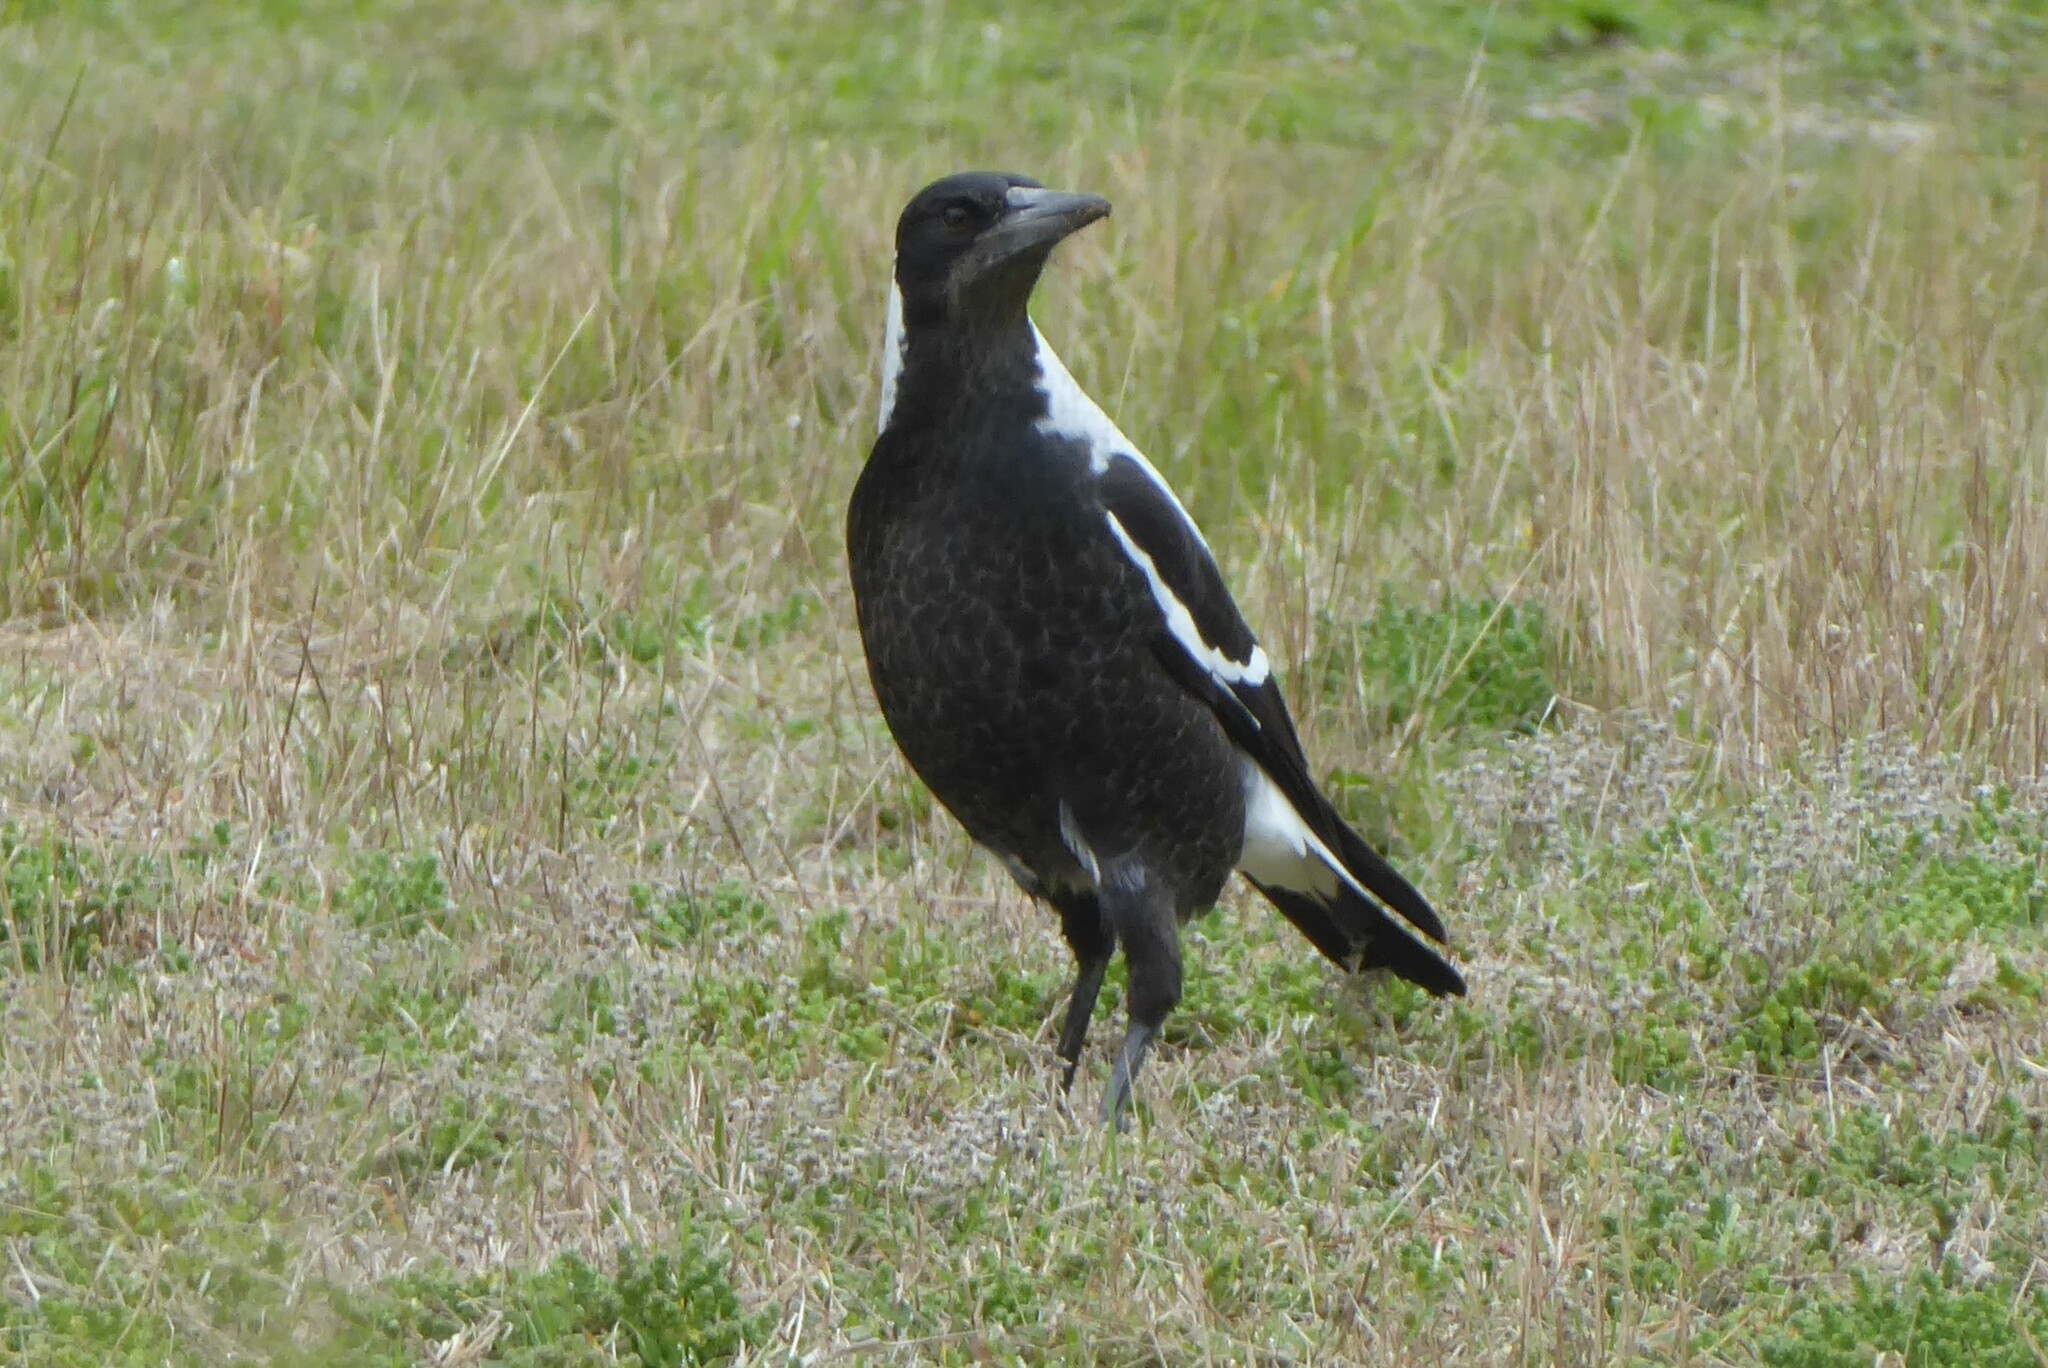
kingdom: Animalia
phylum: Chordata
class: Aves
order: Passeriformes
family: Cracticidae
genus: Gymnorhina
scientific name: Gymnorhina tibicen
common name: Australian magpie
